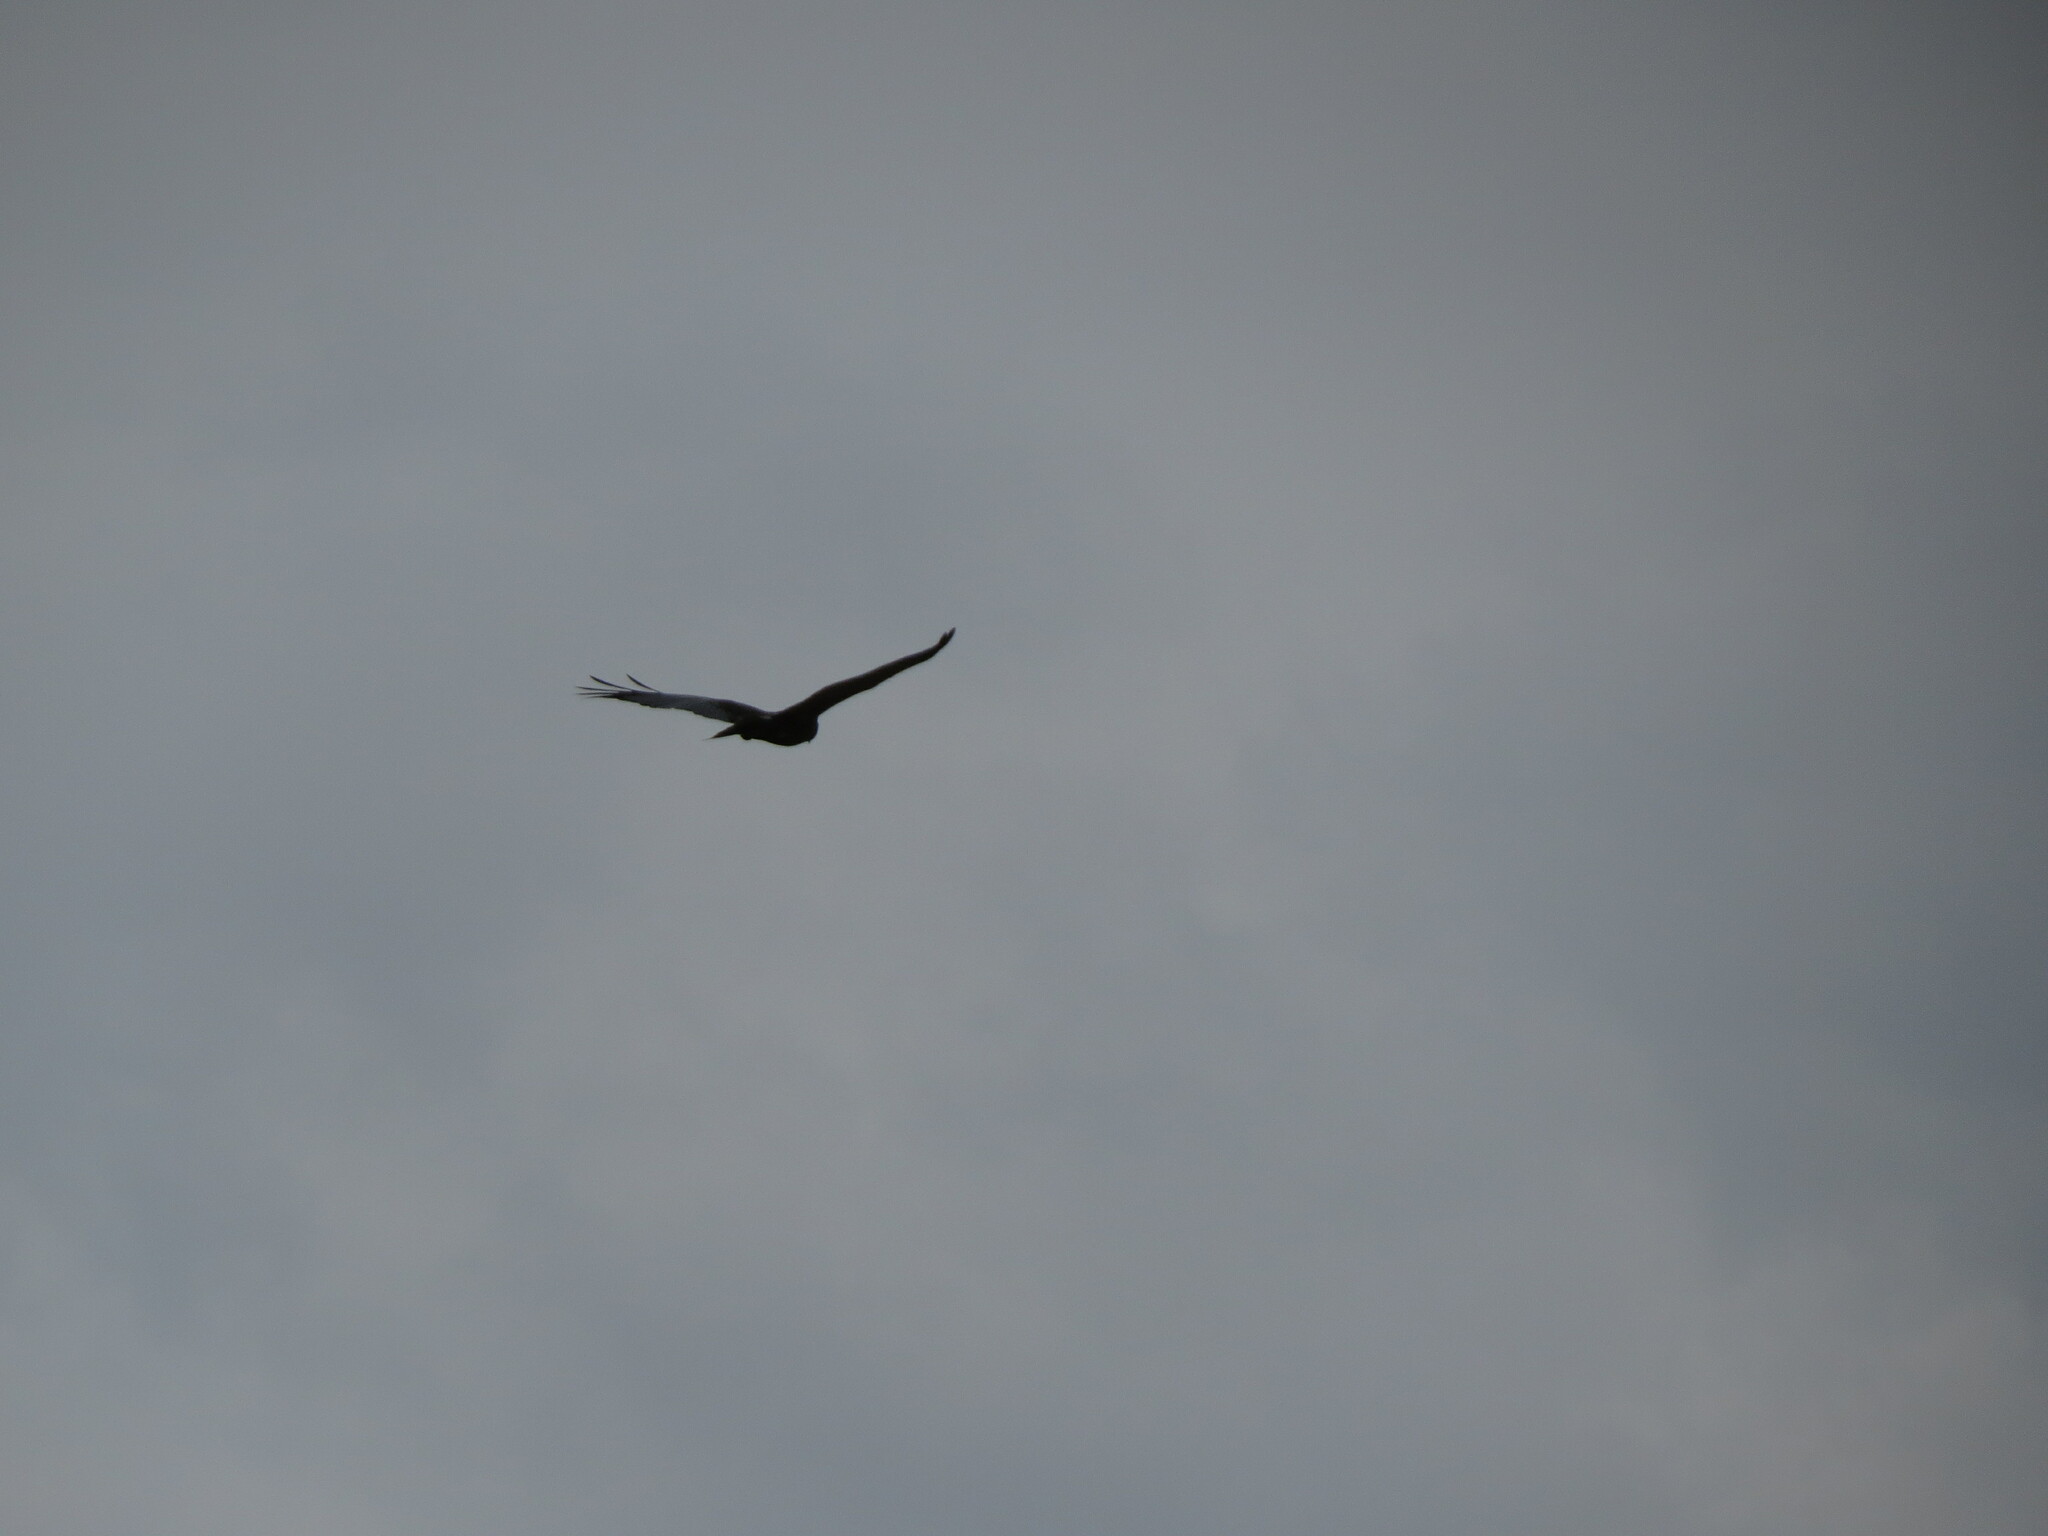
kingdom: Animalia
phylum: Chordata
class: Aves
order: Accipitriformes
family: Accipitridae
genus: Circus
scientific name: Circus aeruginosus
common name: Western marsh harrier
